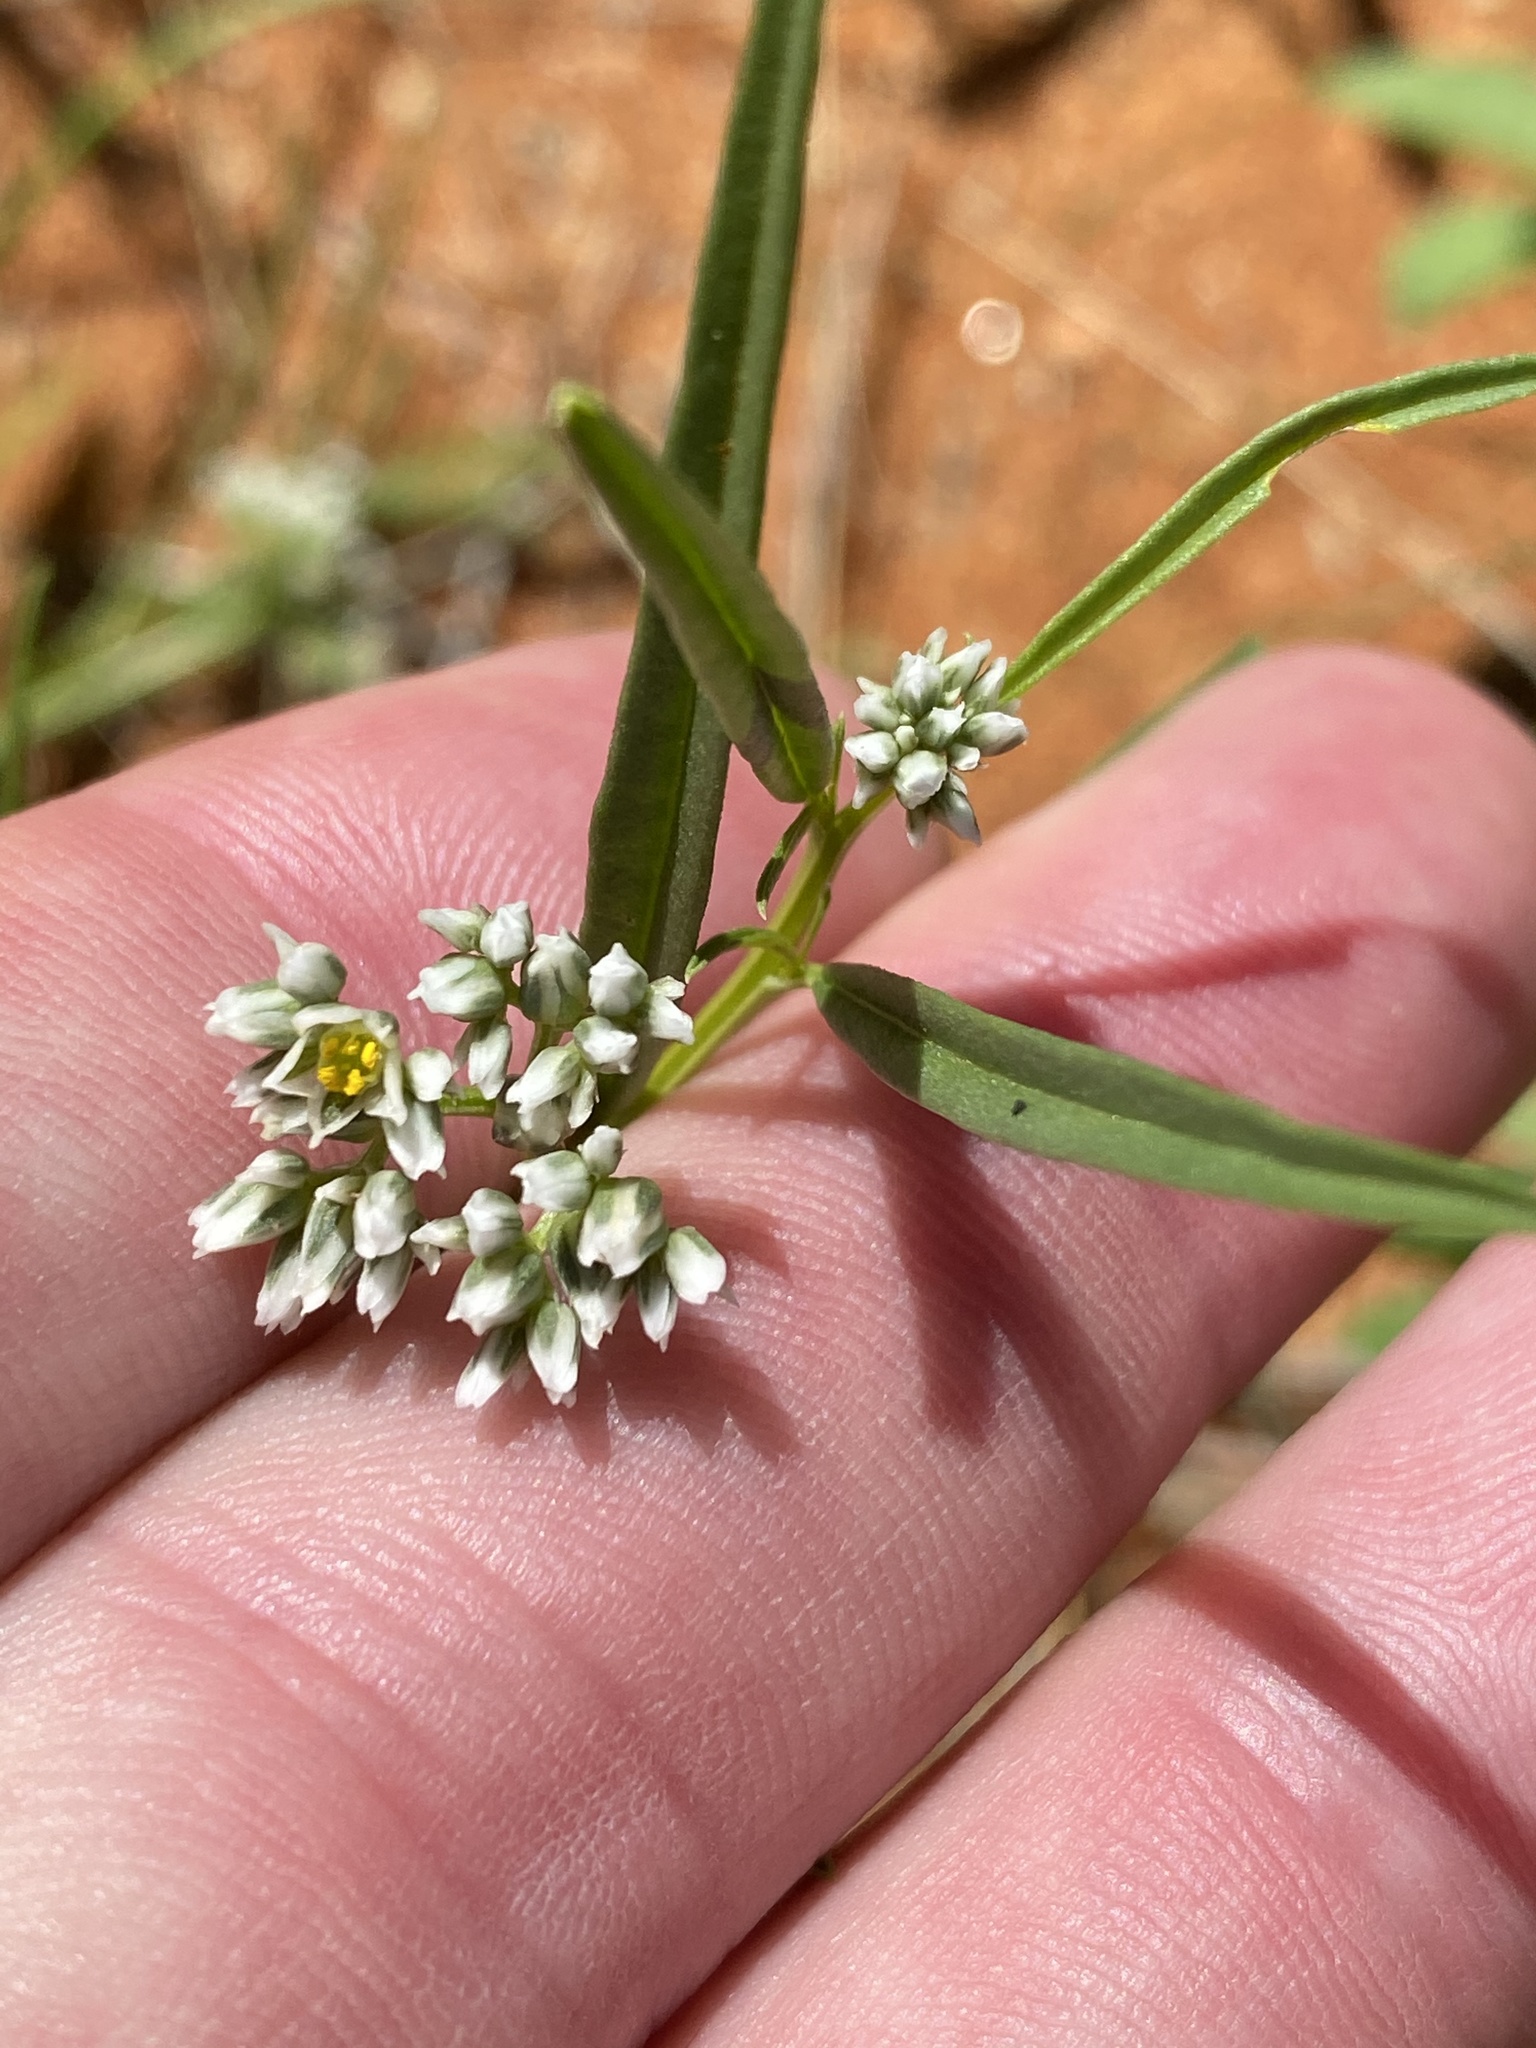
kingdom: Plantae
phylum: Tracheophyta
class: Magnoliopsida
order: Caryophyllales
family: Limeaceae
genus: Limeum
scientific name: Limeum argute-carinatum
